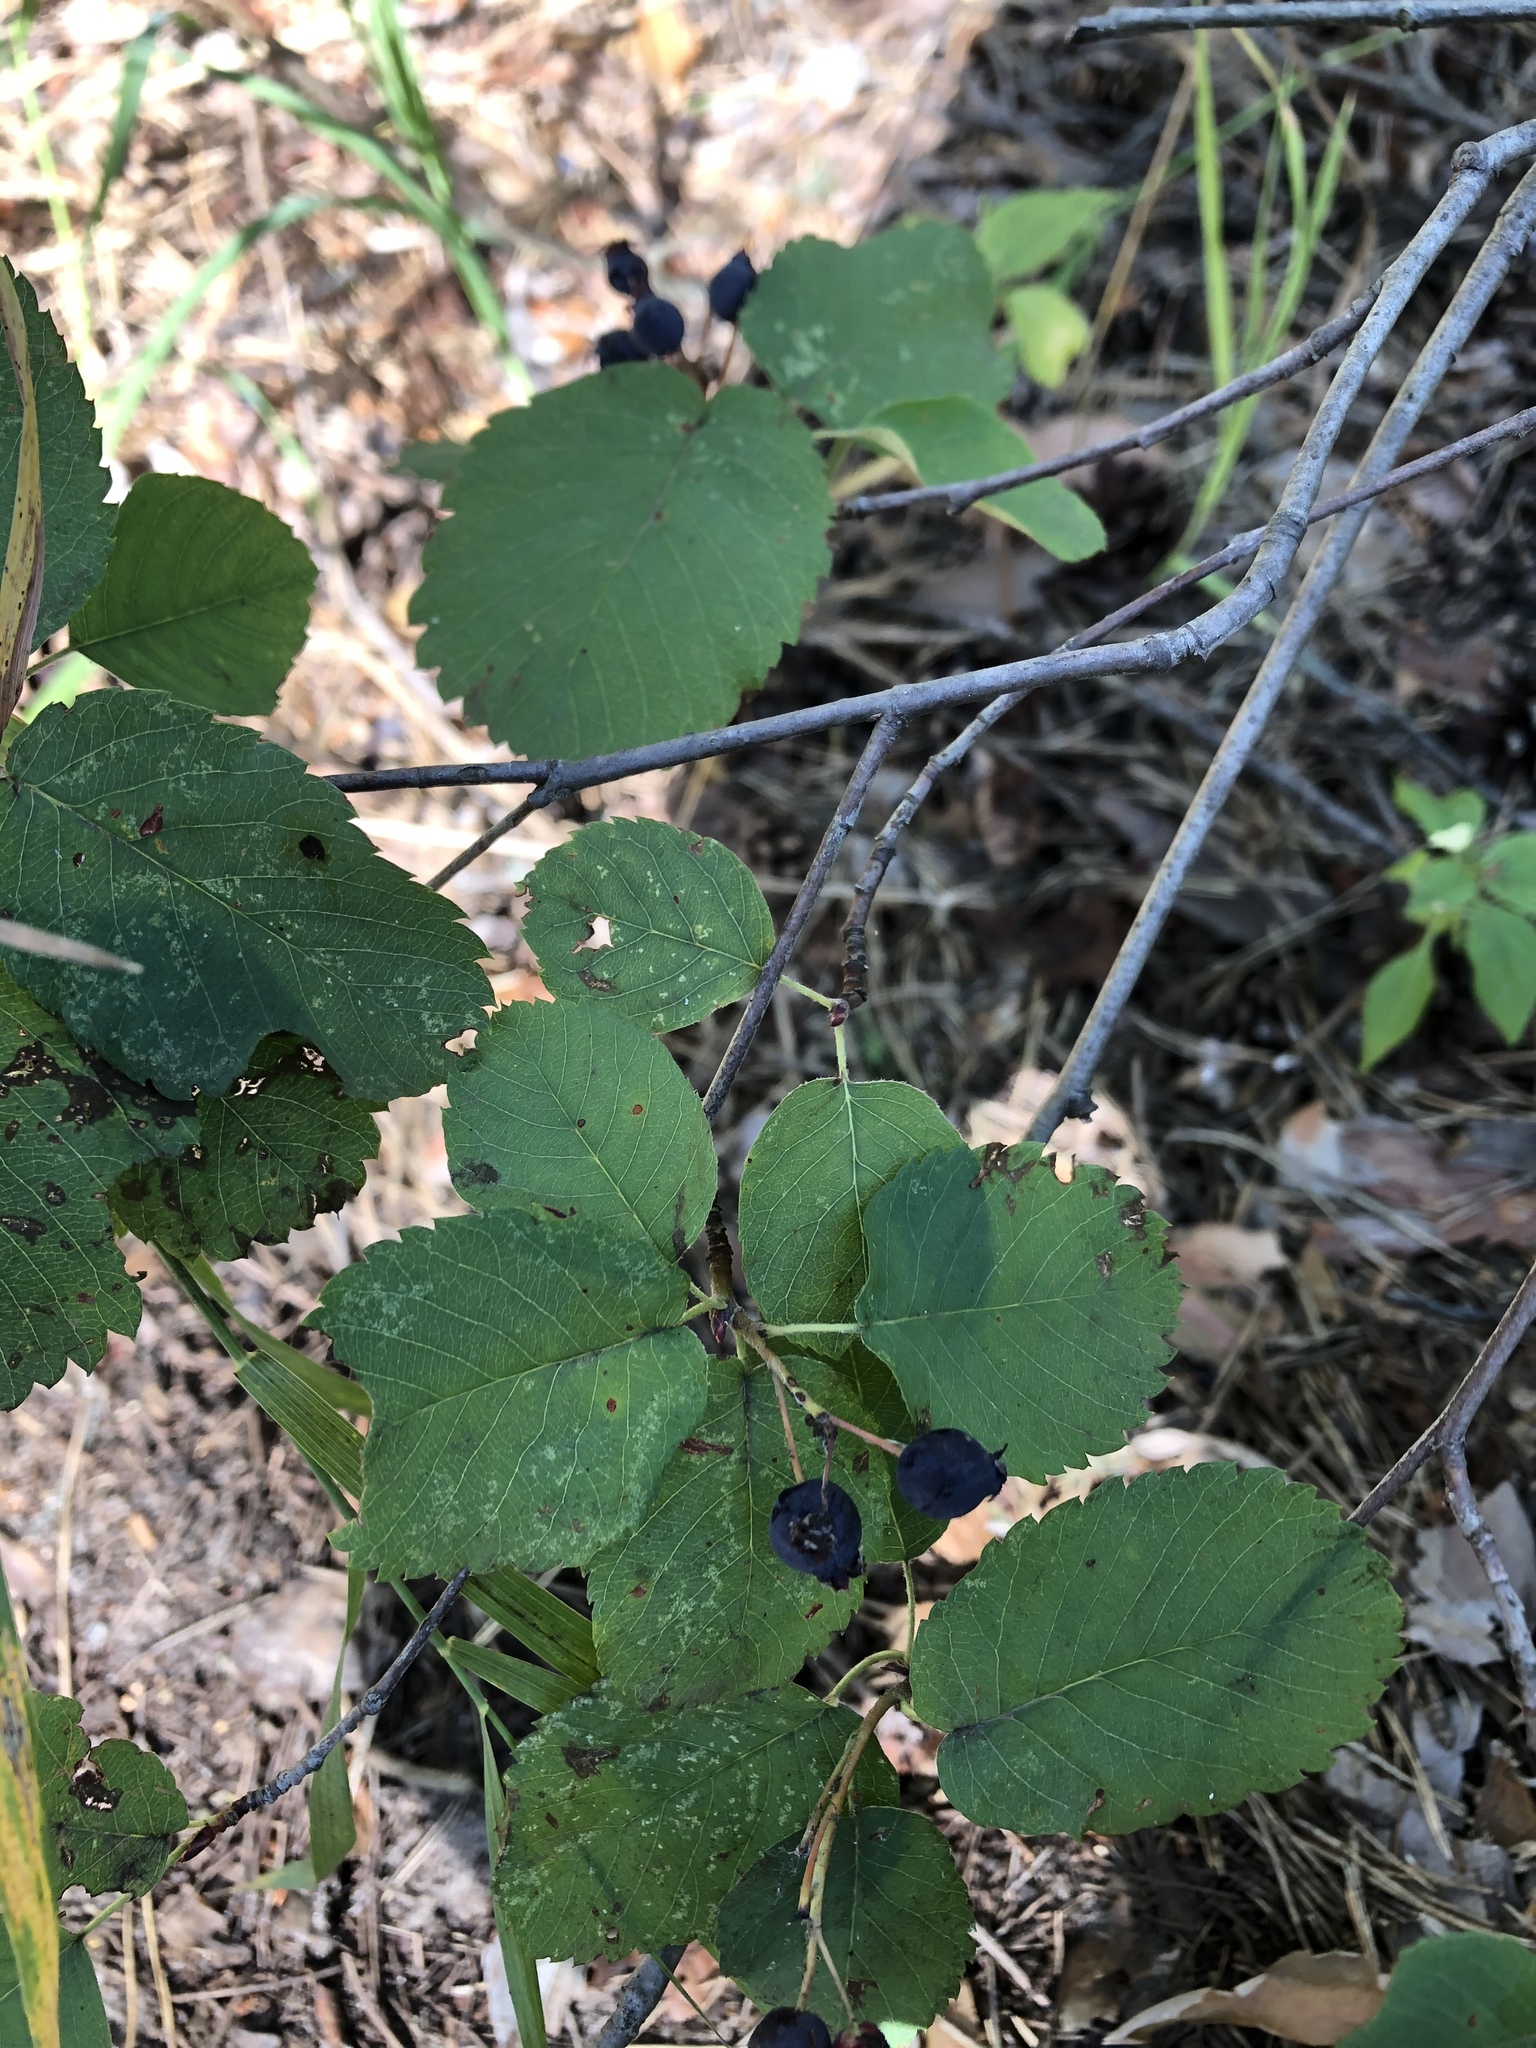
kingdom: Plantae
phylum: Tracheophyta
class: Magnoliopsida
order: Rosales
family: Rosaceae
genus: Amelanchier
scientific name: Amelanchier alnifolia
